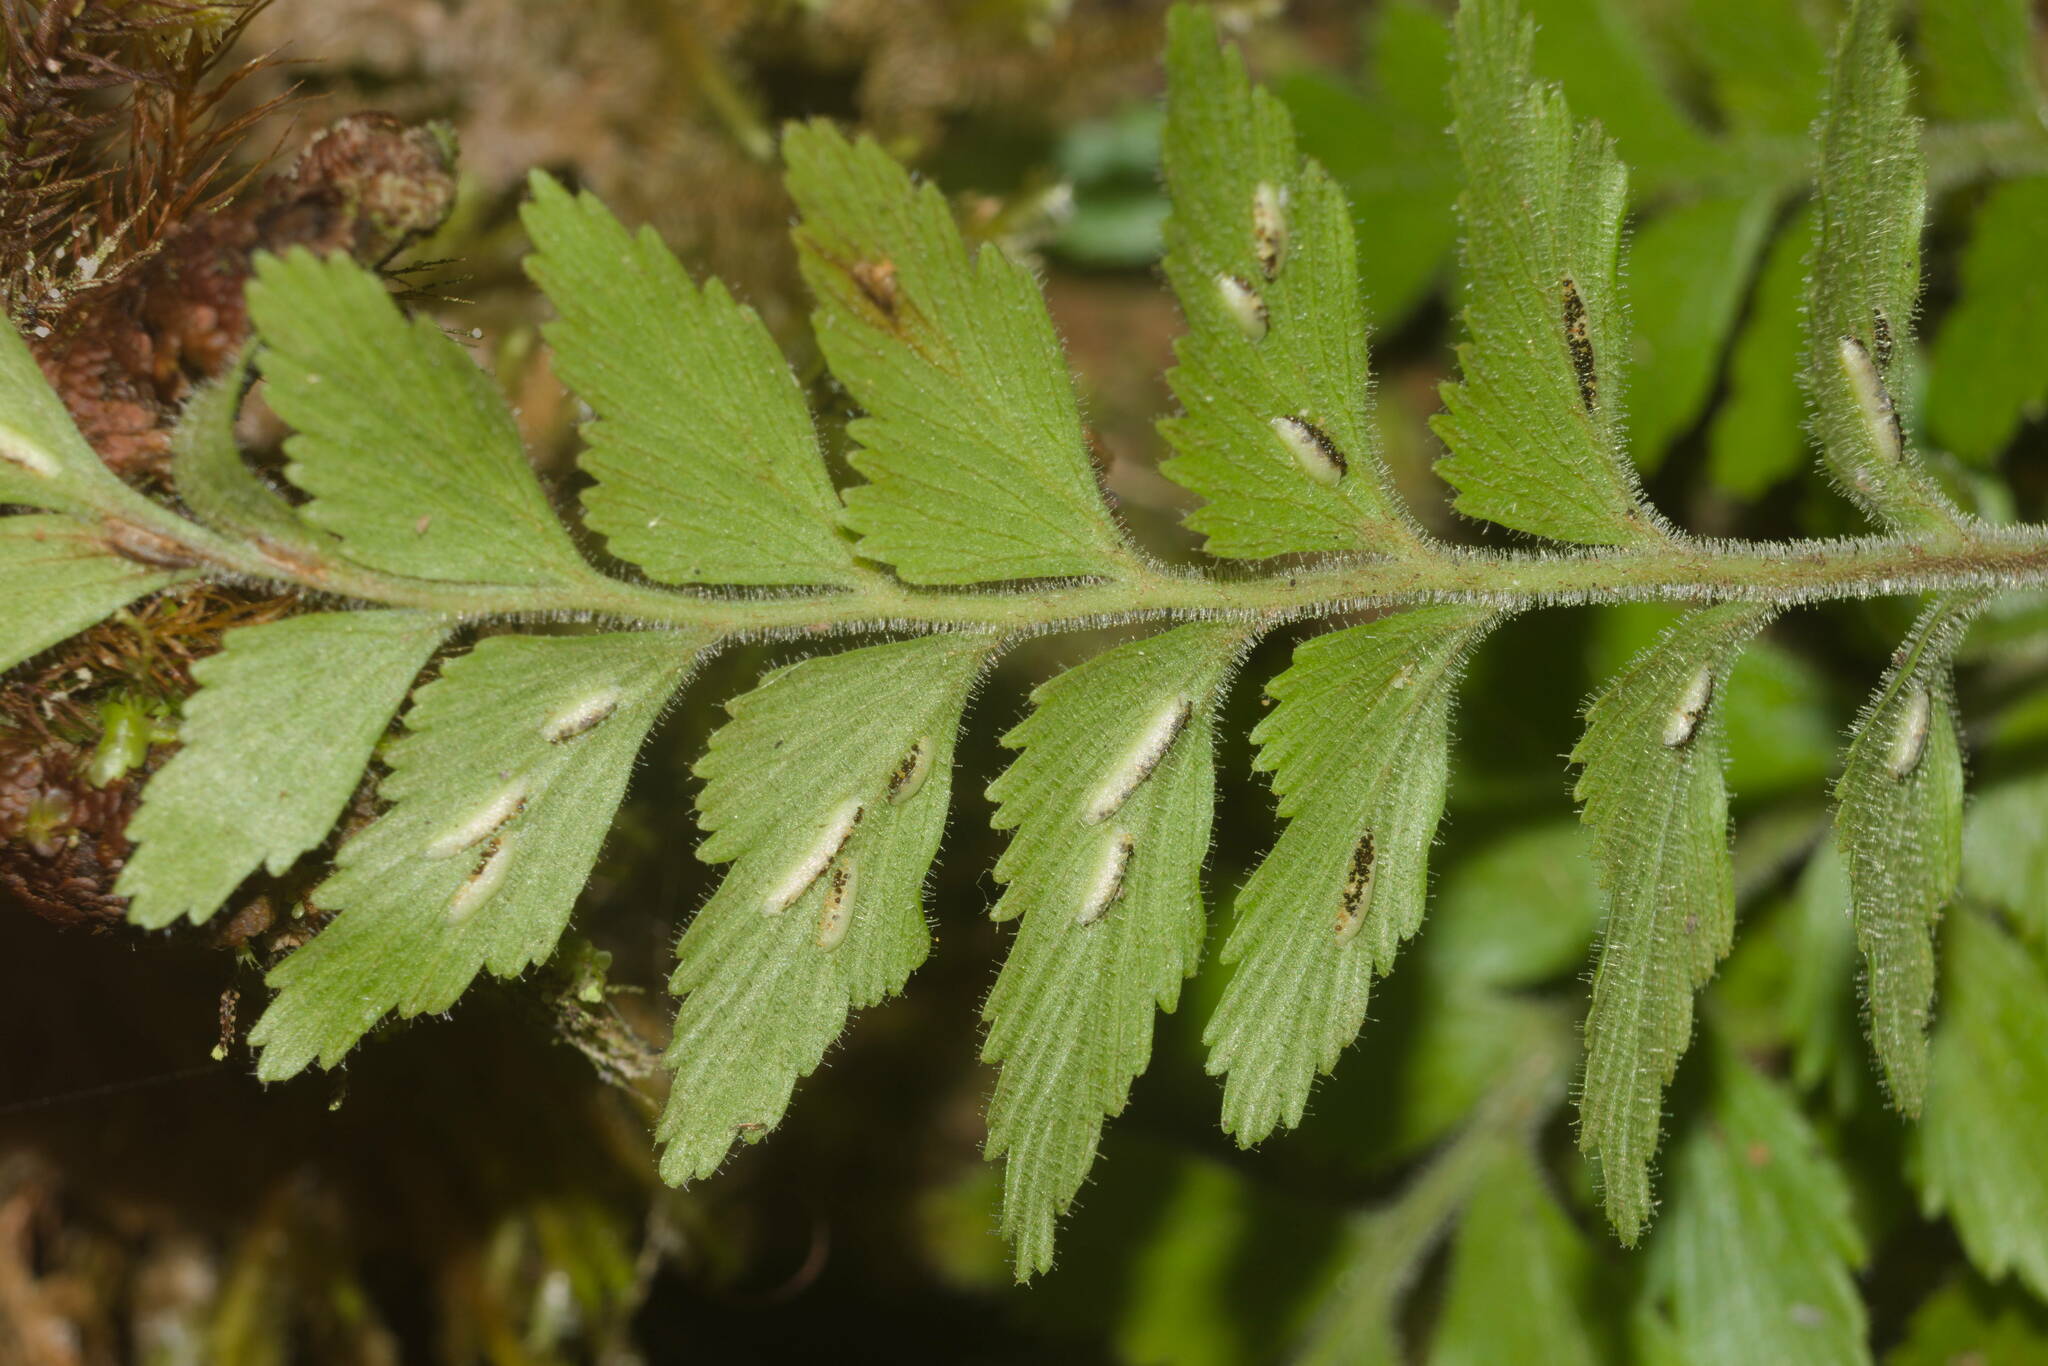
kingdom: Plantae
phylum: Tracheophyta
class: Polypodiopsida
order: Polypodiales
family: Aspleniaceae
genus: Asplenium
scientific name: Asplenium contiguum
